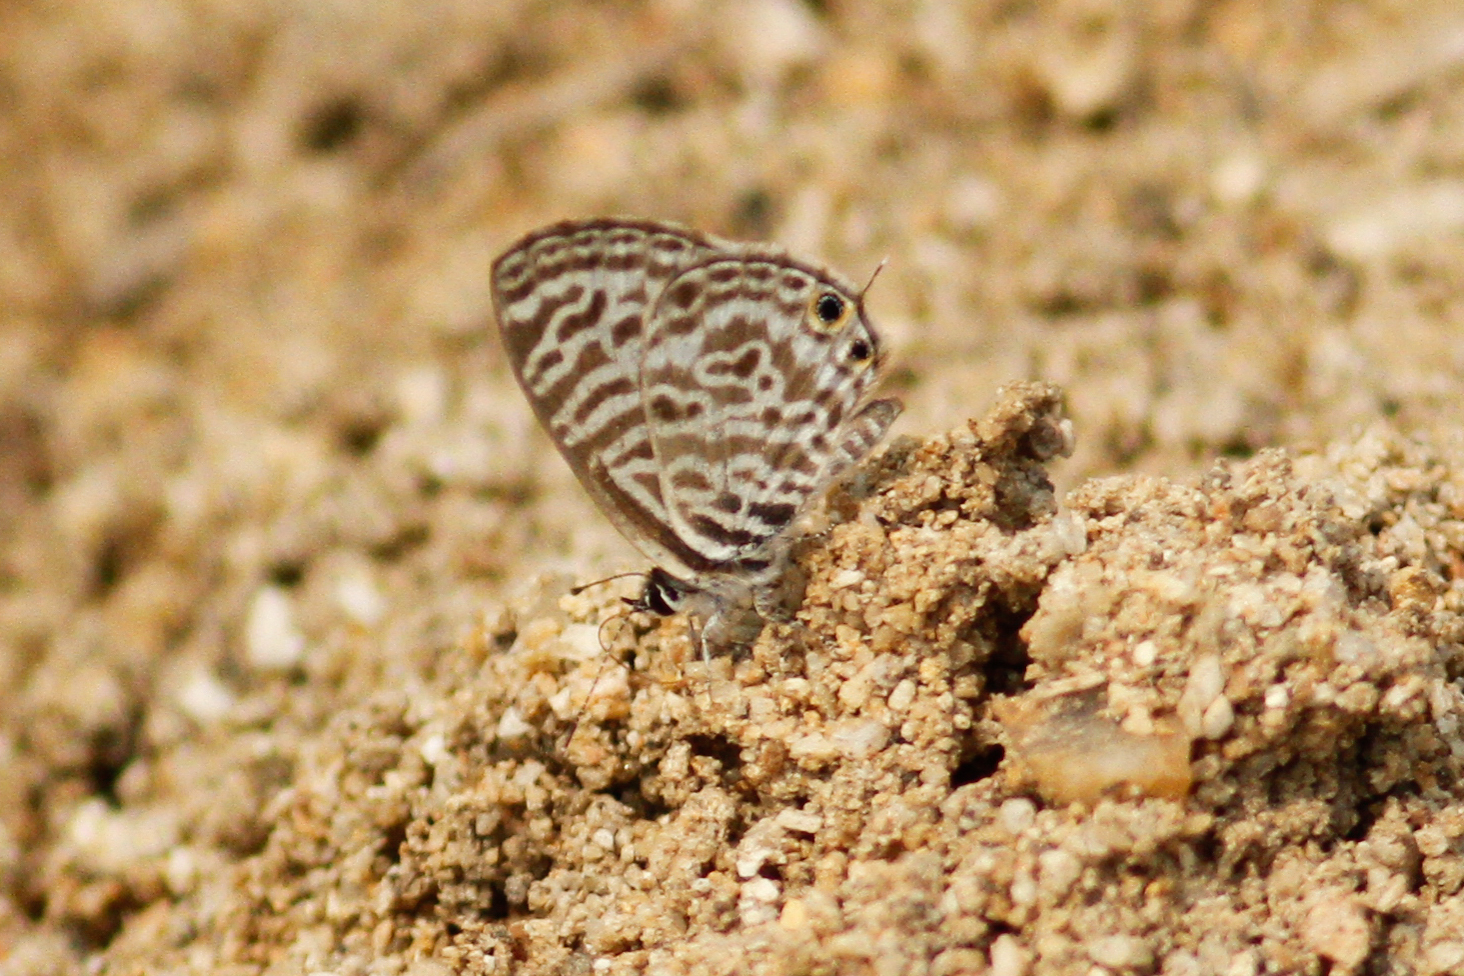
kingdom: Animalia
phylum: Arthropoda
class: Insecta
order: Lepidoptera
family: Lycaenidae
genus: Leptotes
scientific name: Leptotes plinius
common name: Zebra blue
